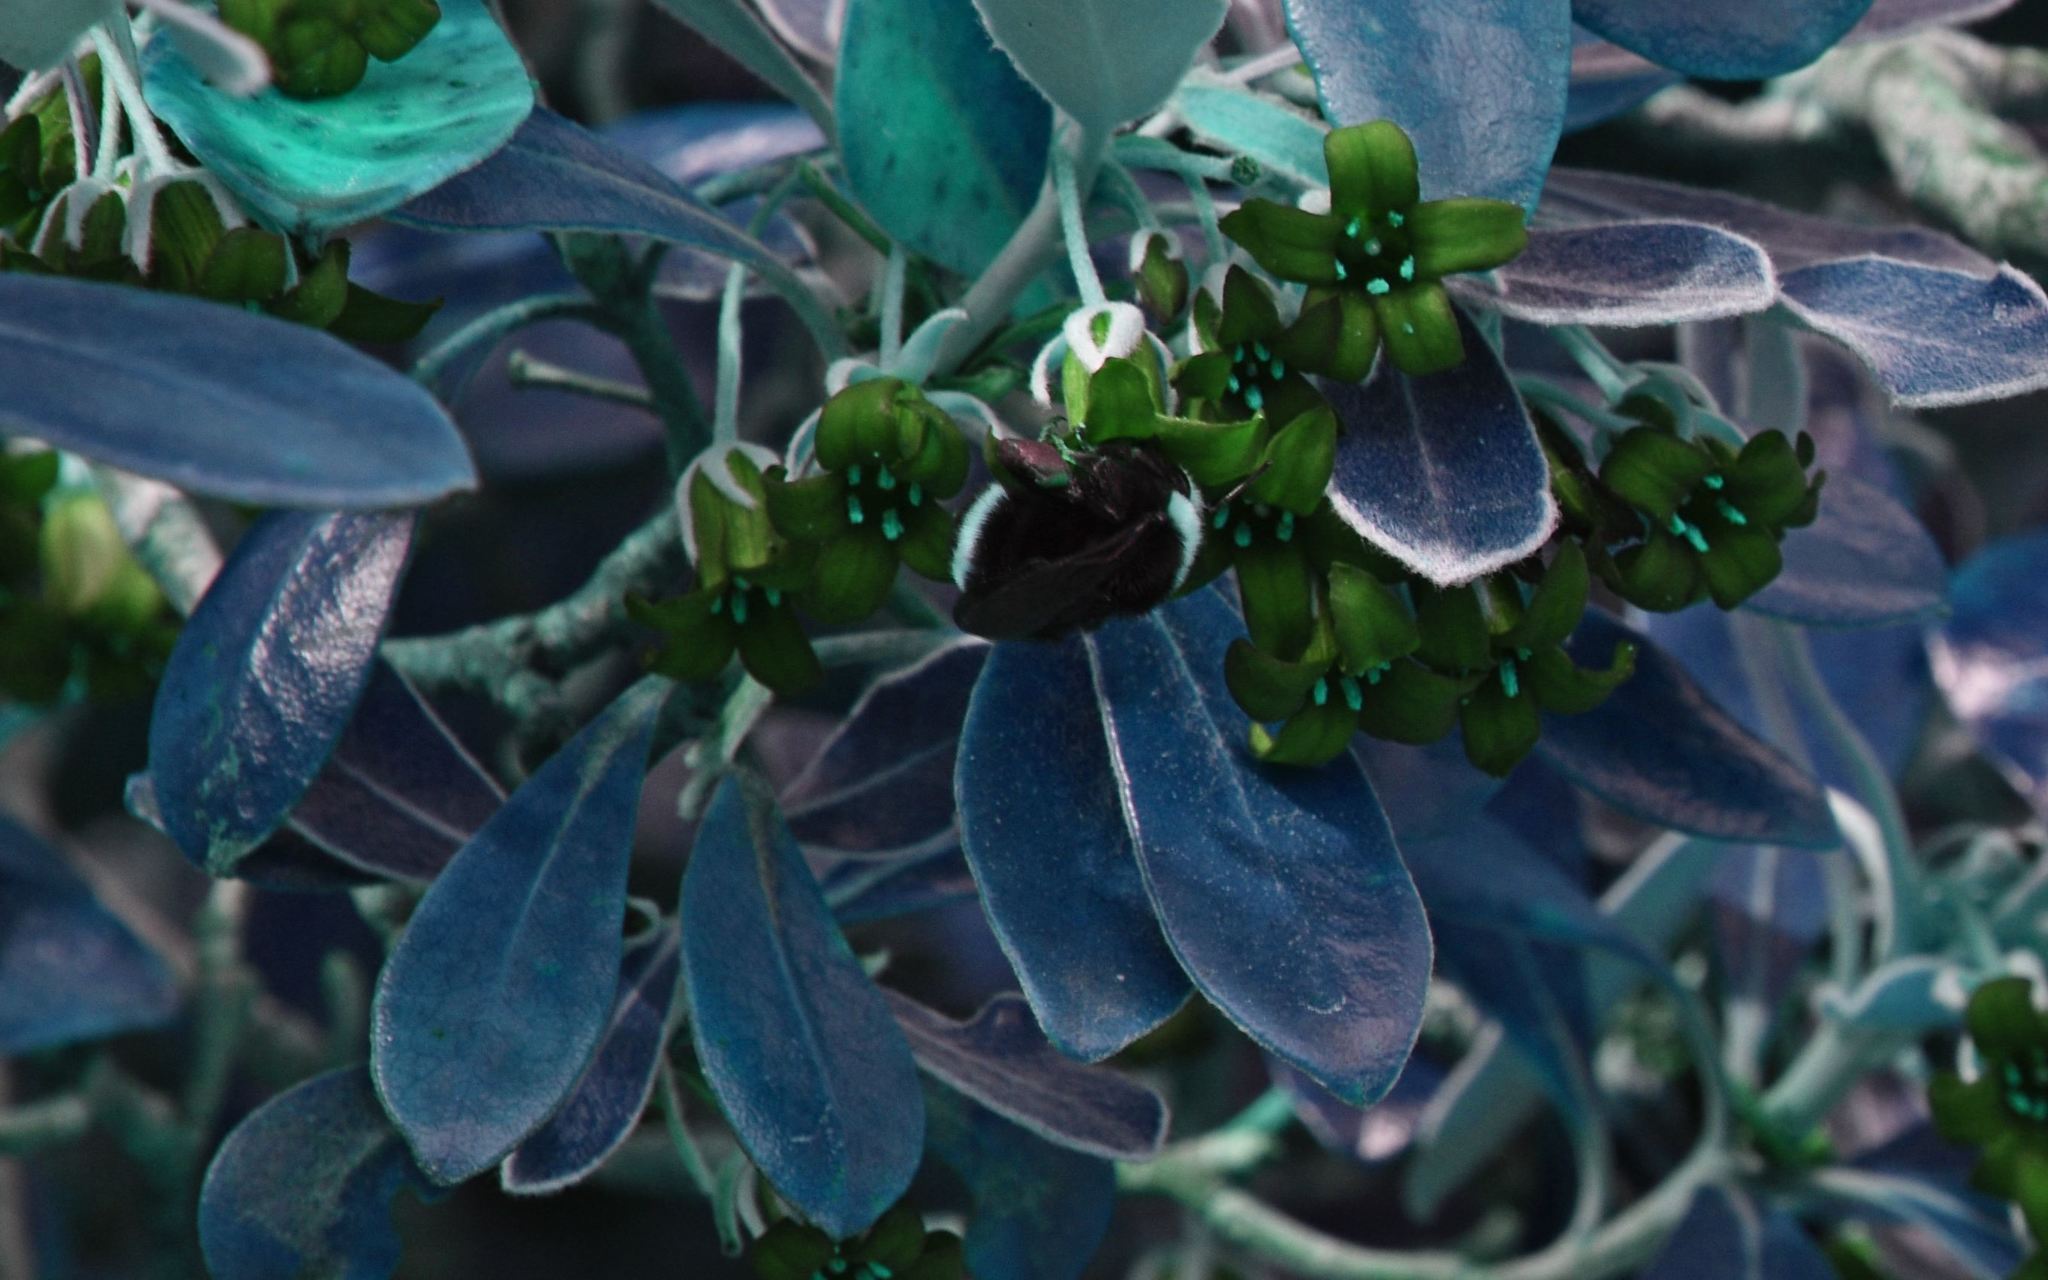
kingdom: Animalia
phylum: Arthropoda
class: Insecta
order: Hymenoptera
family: Apidae
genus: Pyrobombus
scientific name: Pyrobombus
